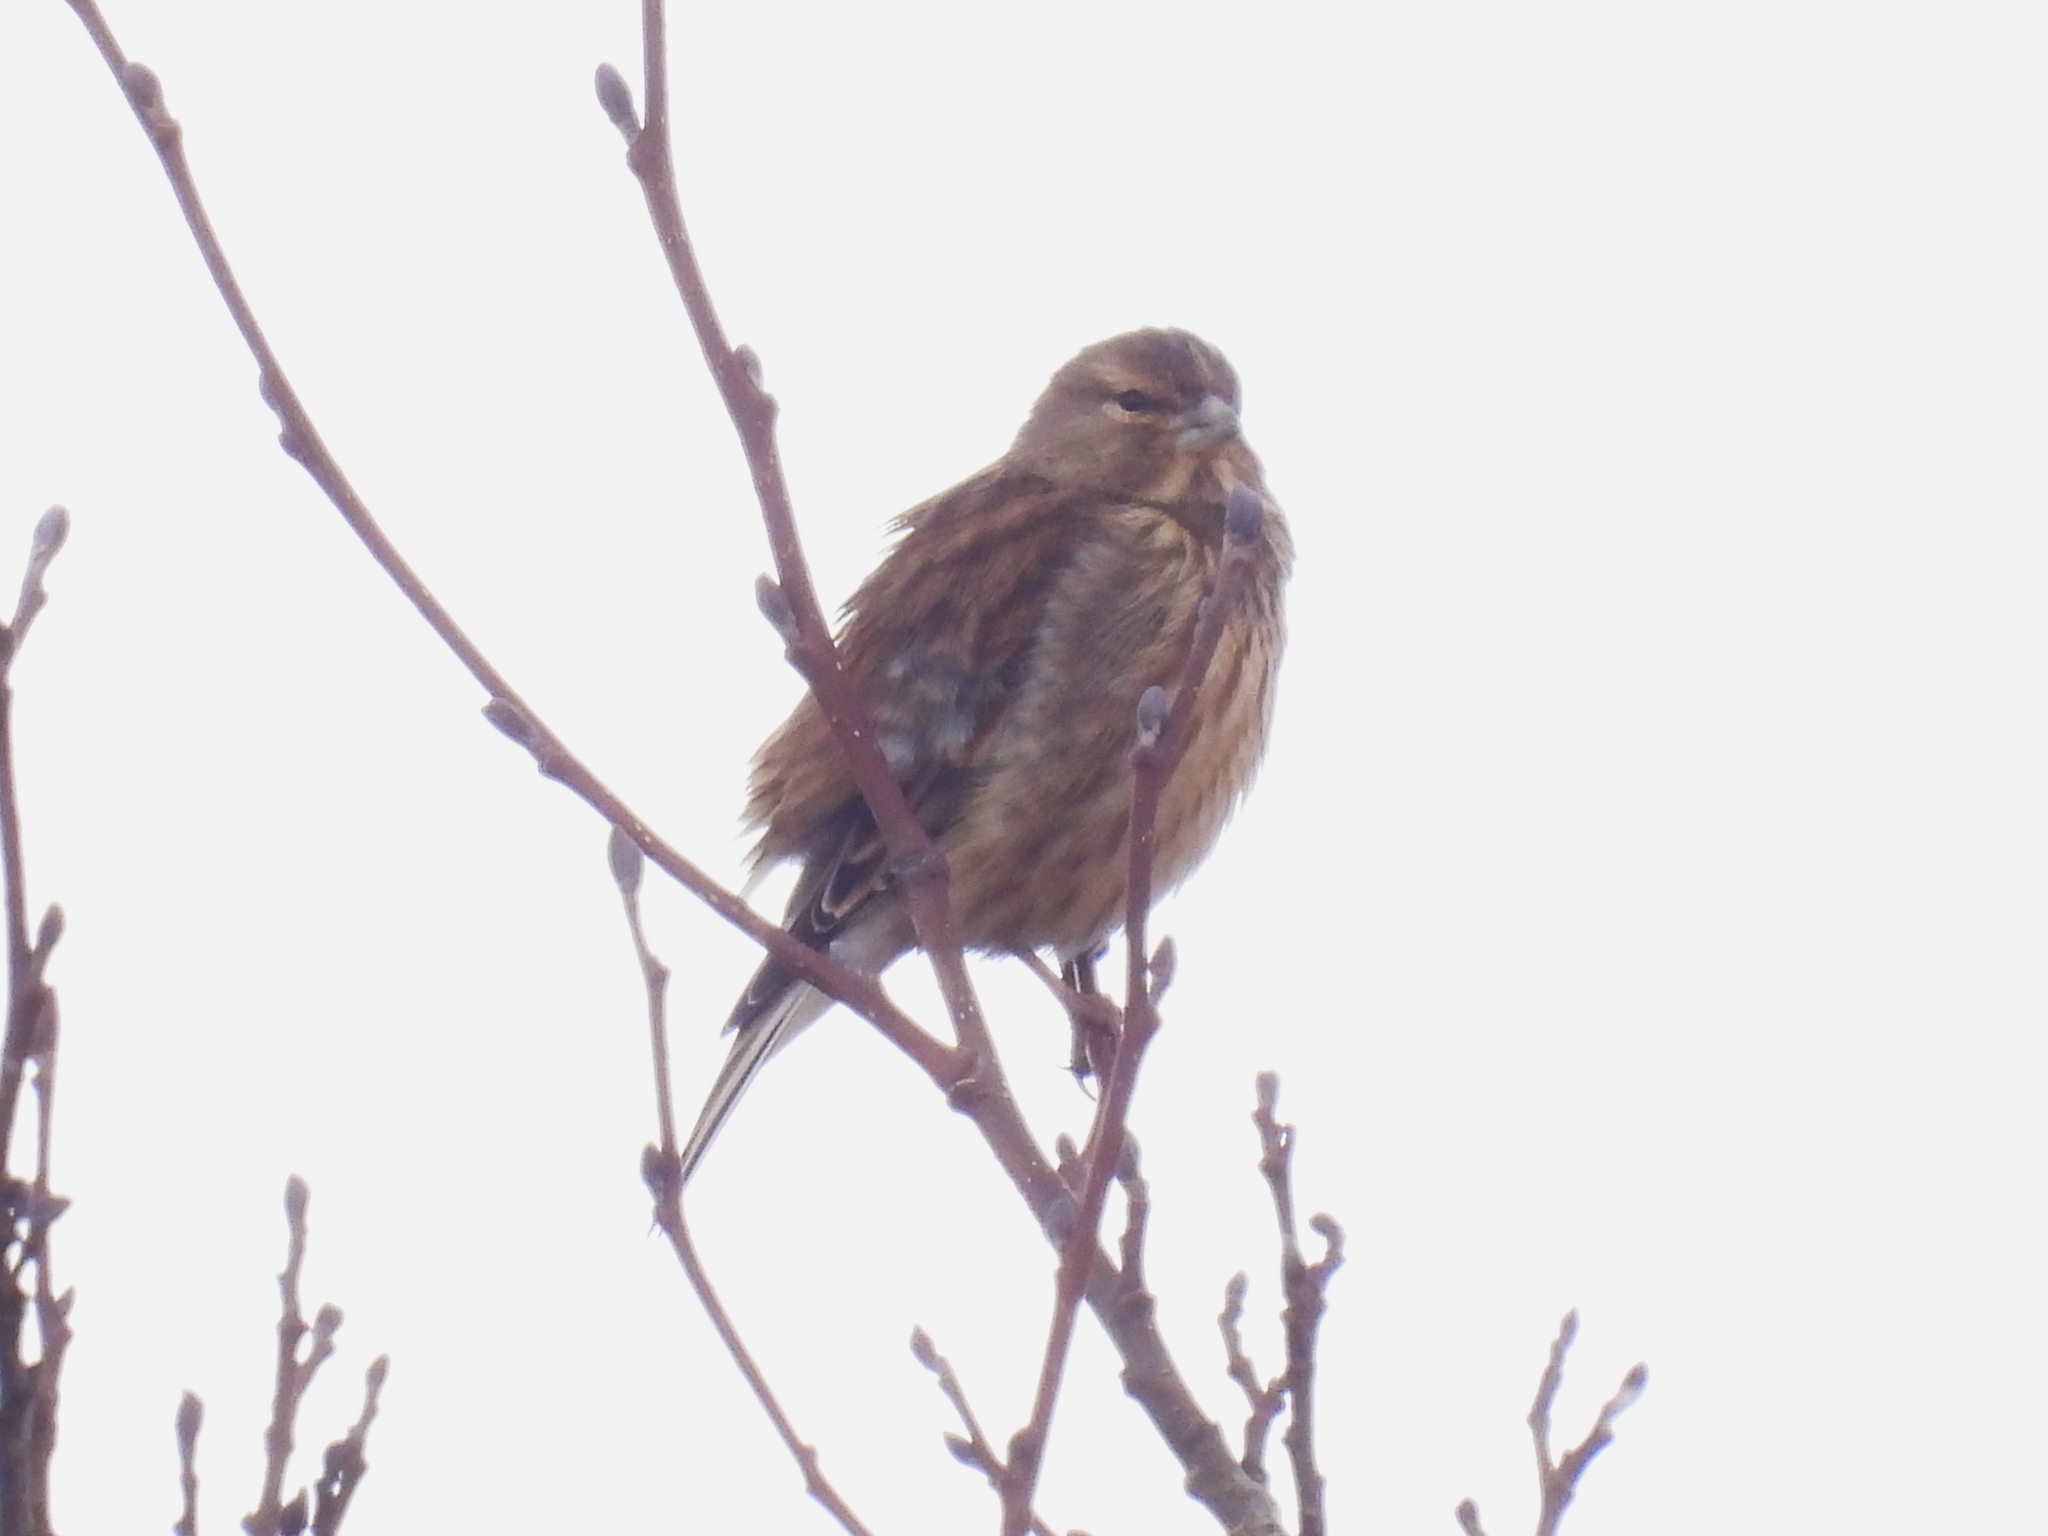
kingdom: Animalia
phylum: Chordata
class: Aves
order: Passeriformes
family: Fringillidae
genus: Linaria
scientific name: Linaria cannabina
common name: Common linnet
